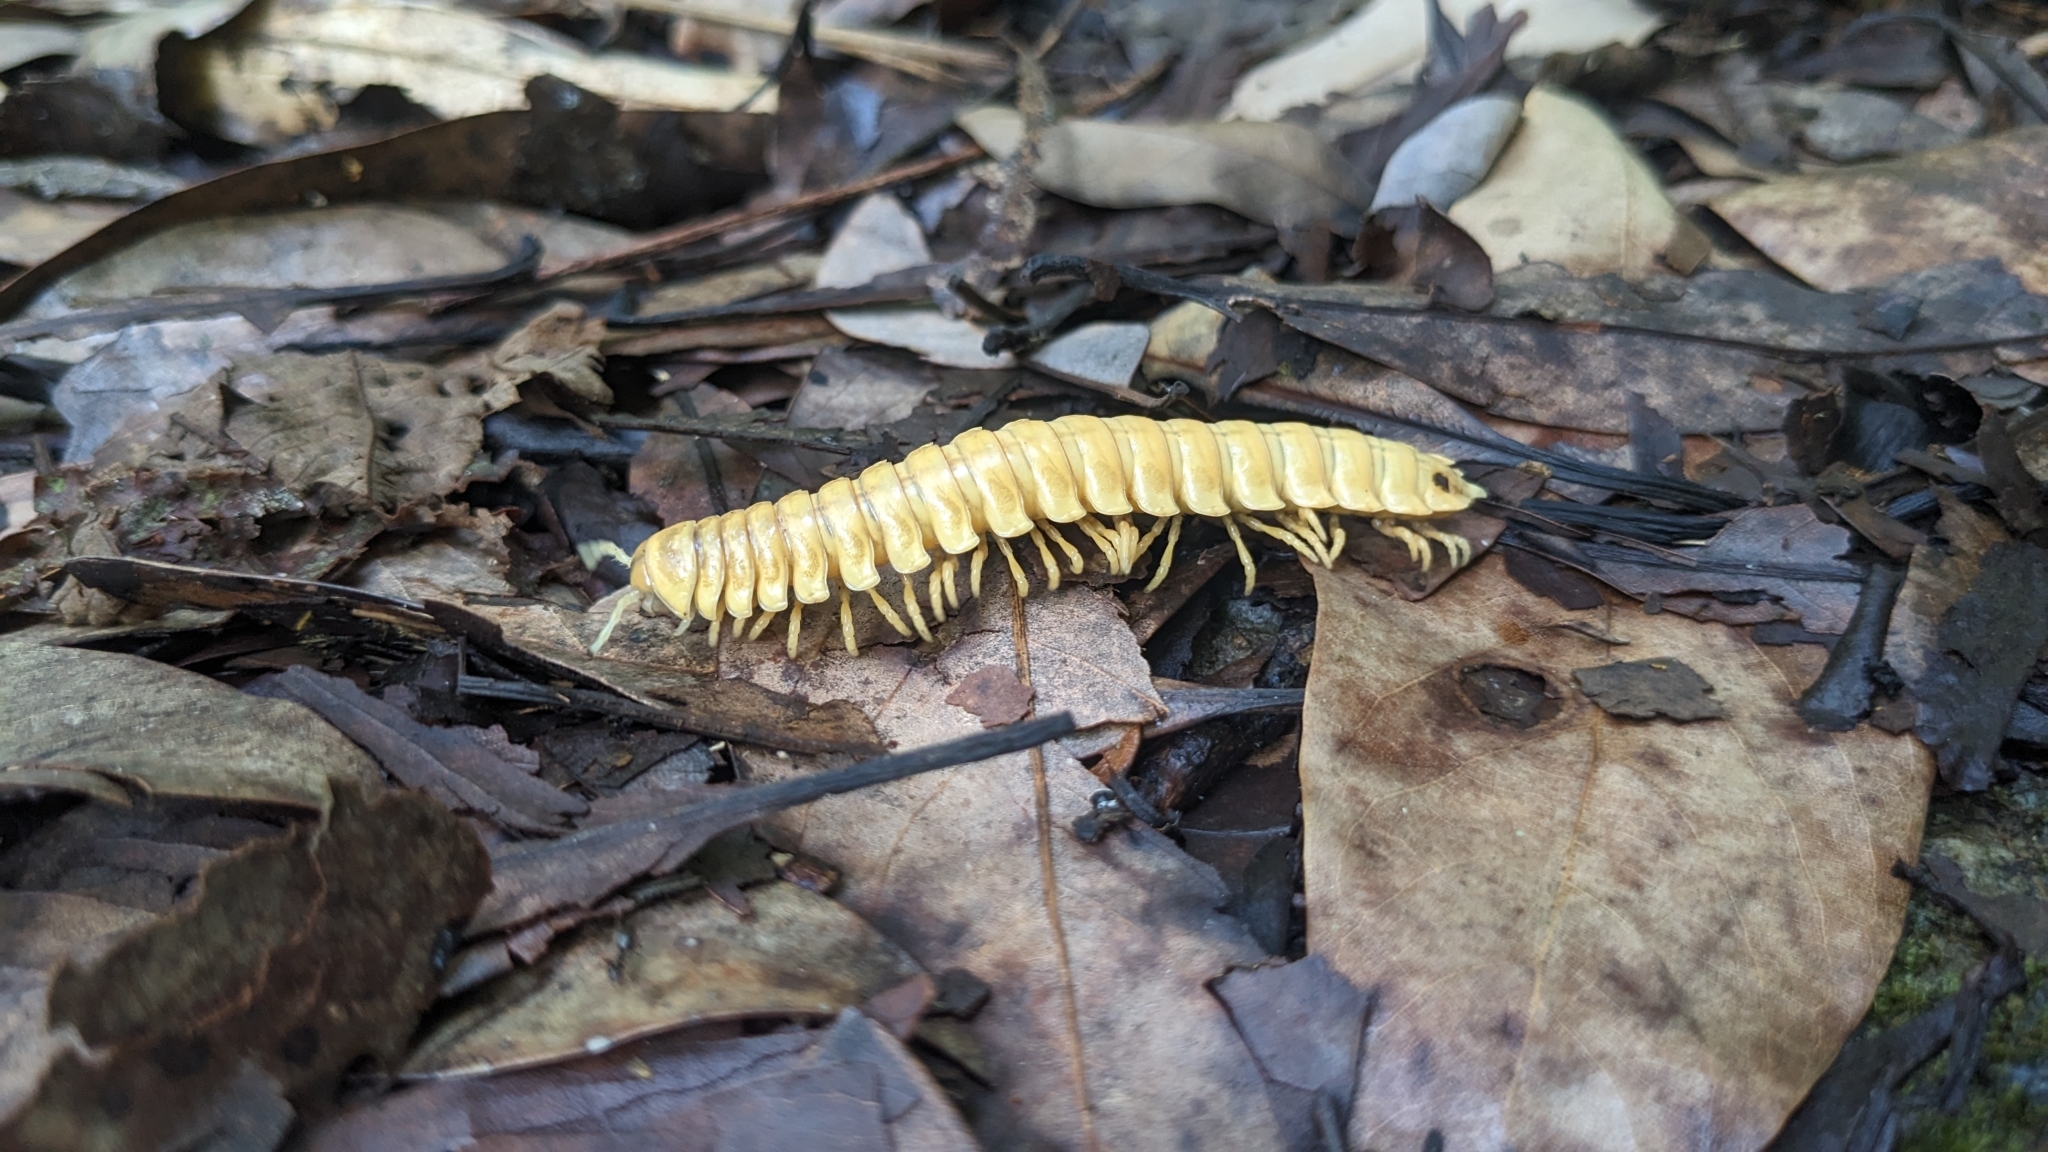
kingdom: Animalia
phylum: Arthropoda
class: Diplopoda
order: Polydesmida
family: Xystodesmidae
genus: Riukiaria
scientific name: Riukiaria cohaesiva
